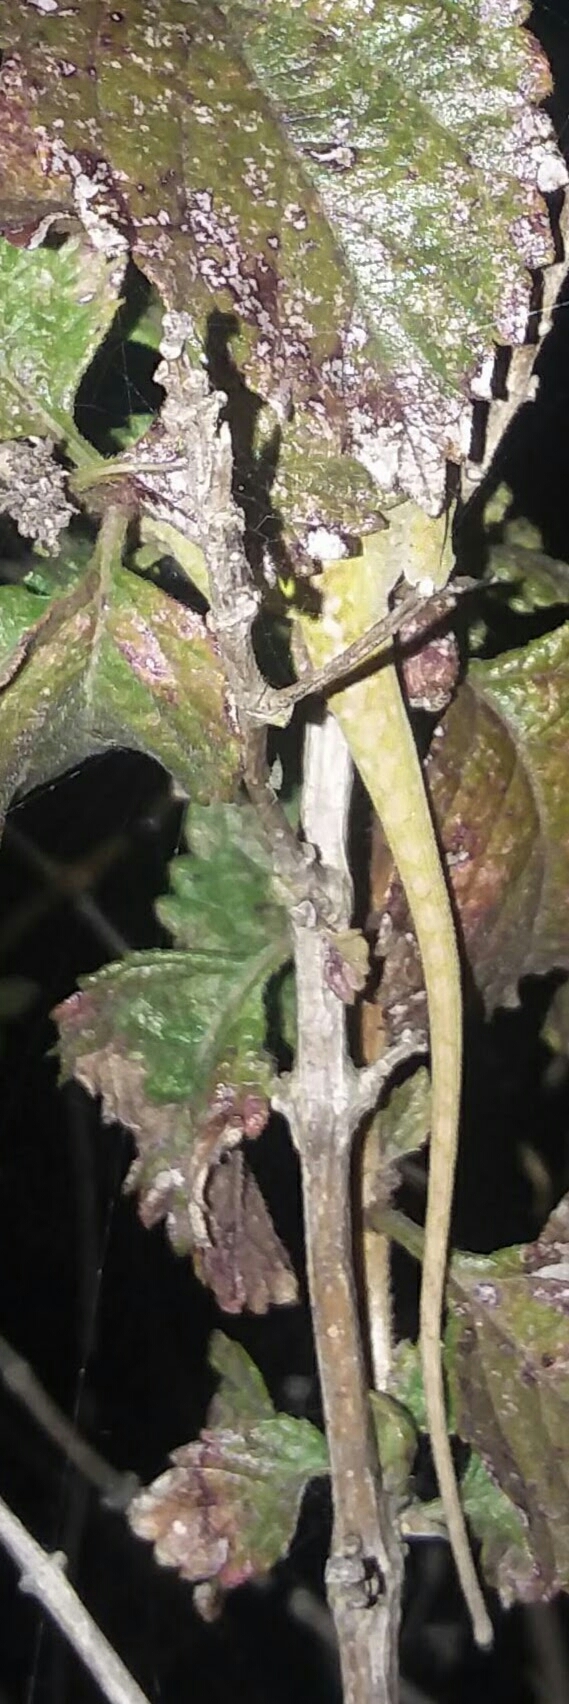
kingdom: Animalia
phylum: Chordata
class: Squamata
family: Dactyloidae
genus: Anolis
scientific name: Anolis carolinensis
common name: Green anole
